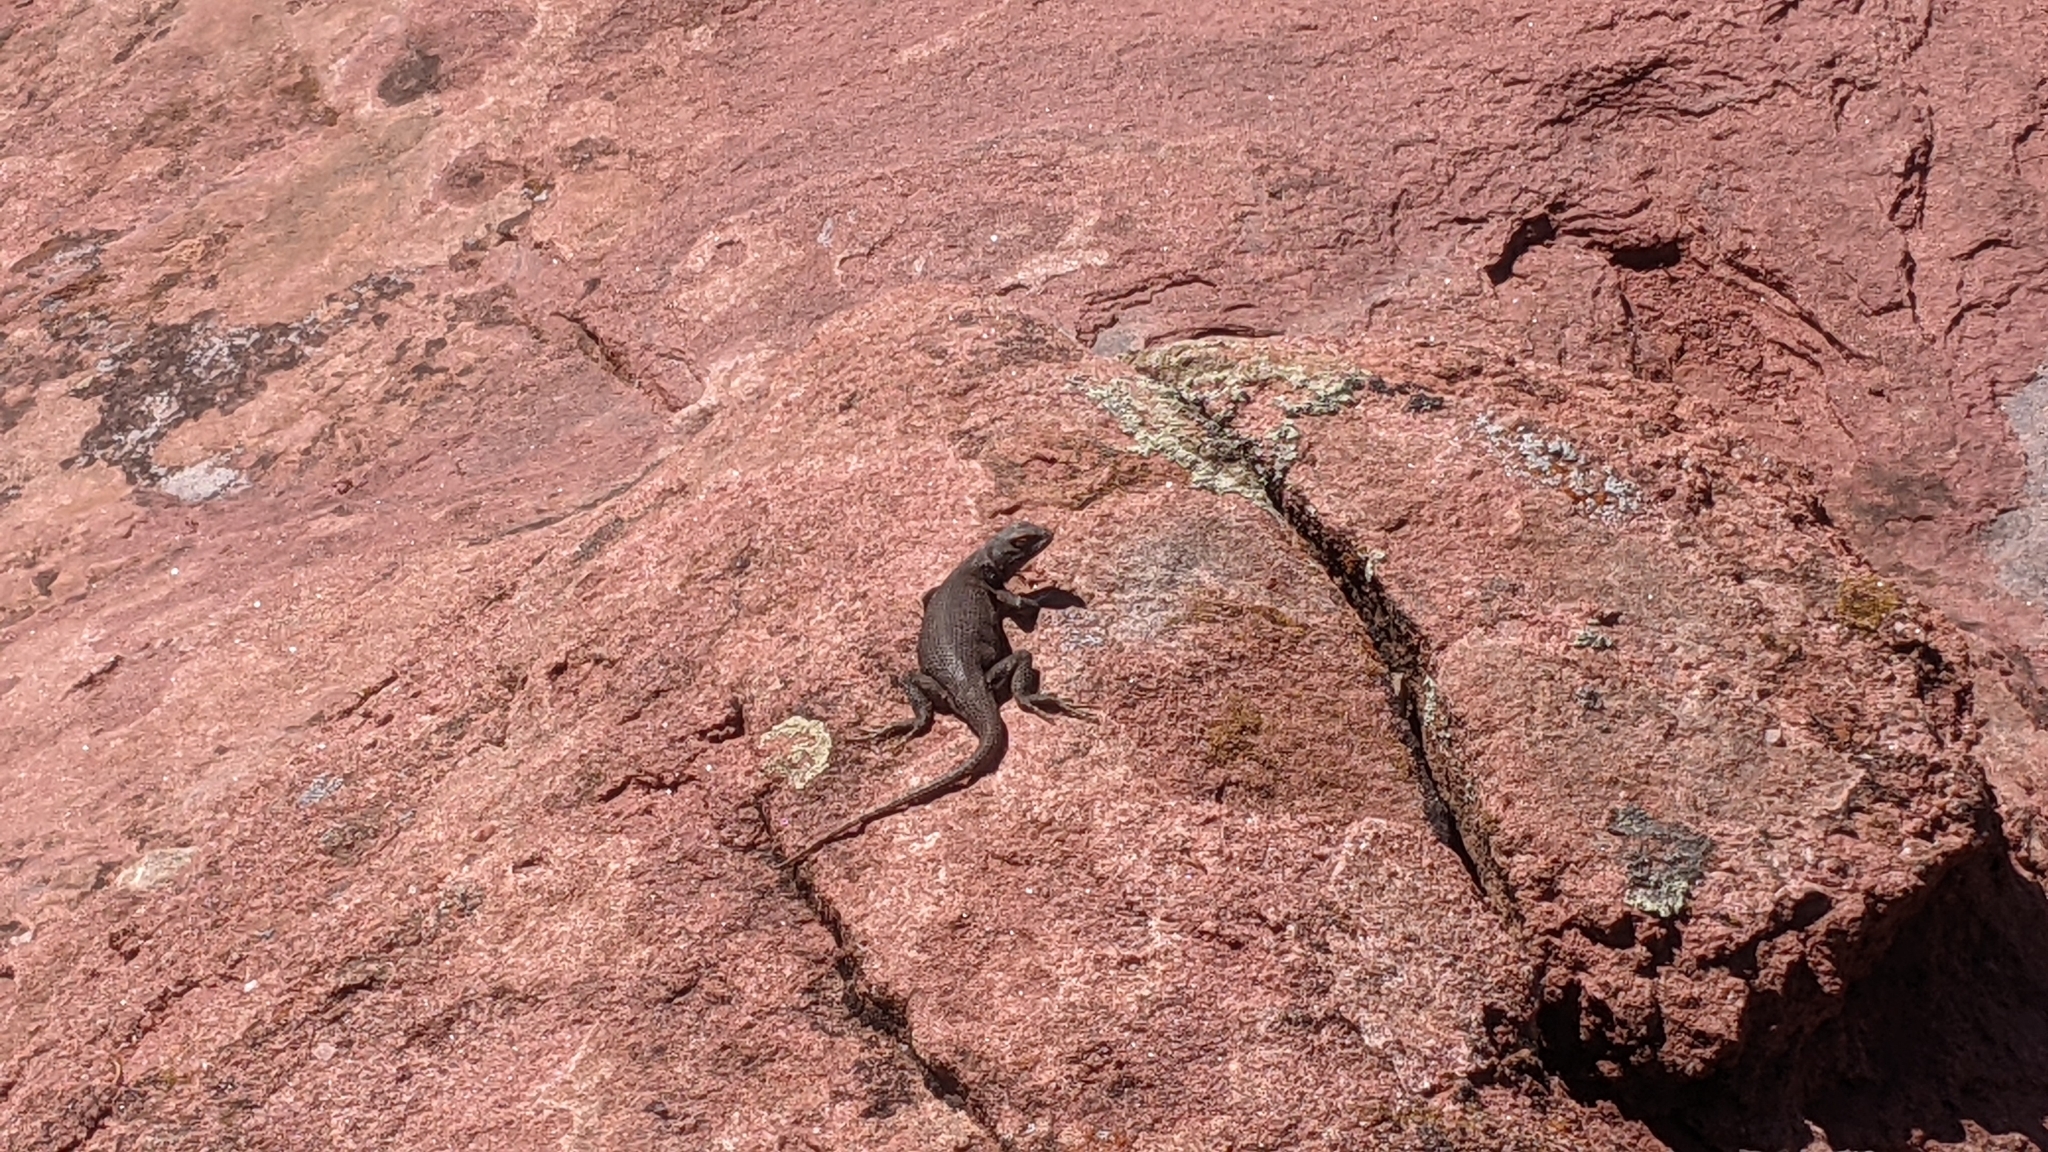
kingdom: Animalia
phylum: Chordata
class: Squamata
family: Phrynosomatidae
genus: Sceloporus
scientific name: Sceloporus tristichus
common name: Plateau fence lizard
